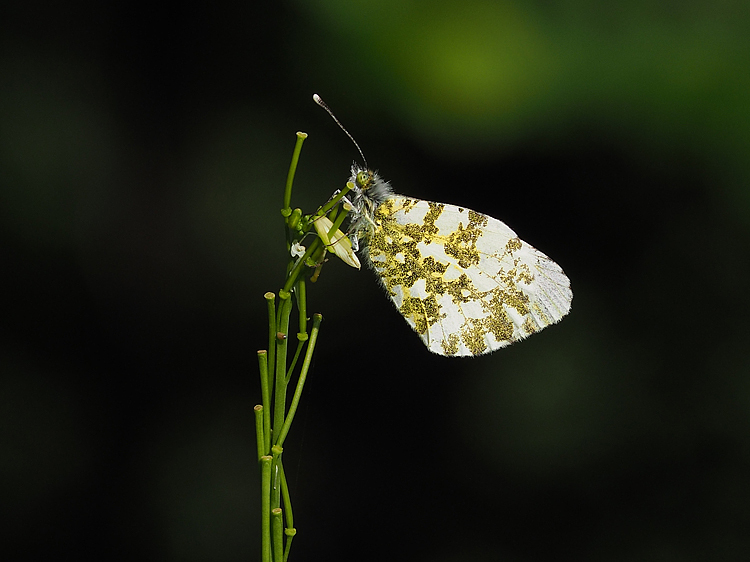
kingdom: Animalia
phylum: Arthropoda
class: Insecta
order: Lepidoptera
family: Pieridae
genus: Anthocharis
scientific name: Anthocharis cardamines
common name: Orange-tip
